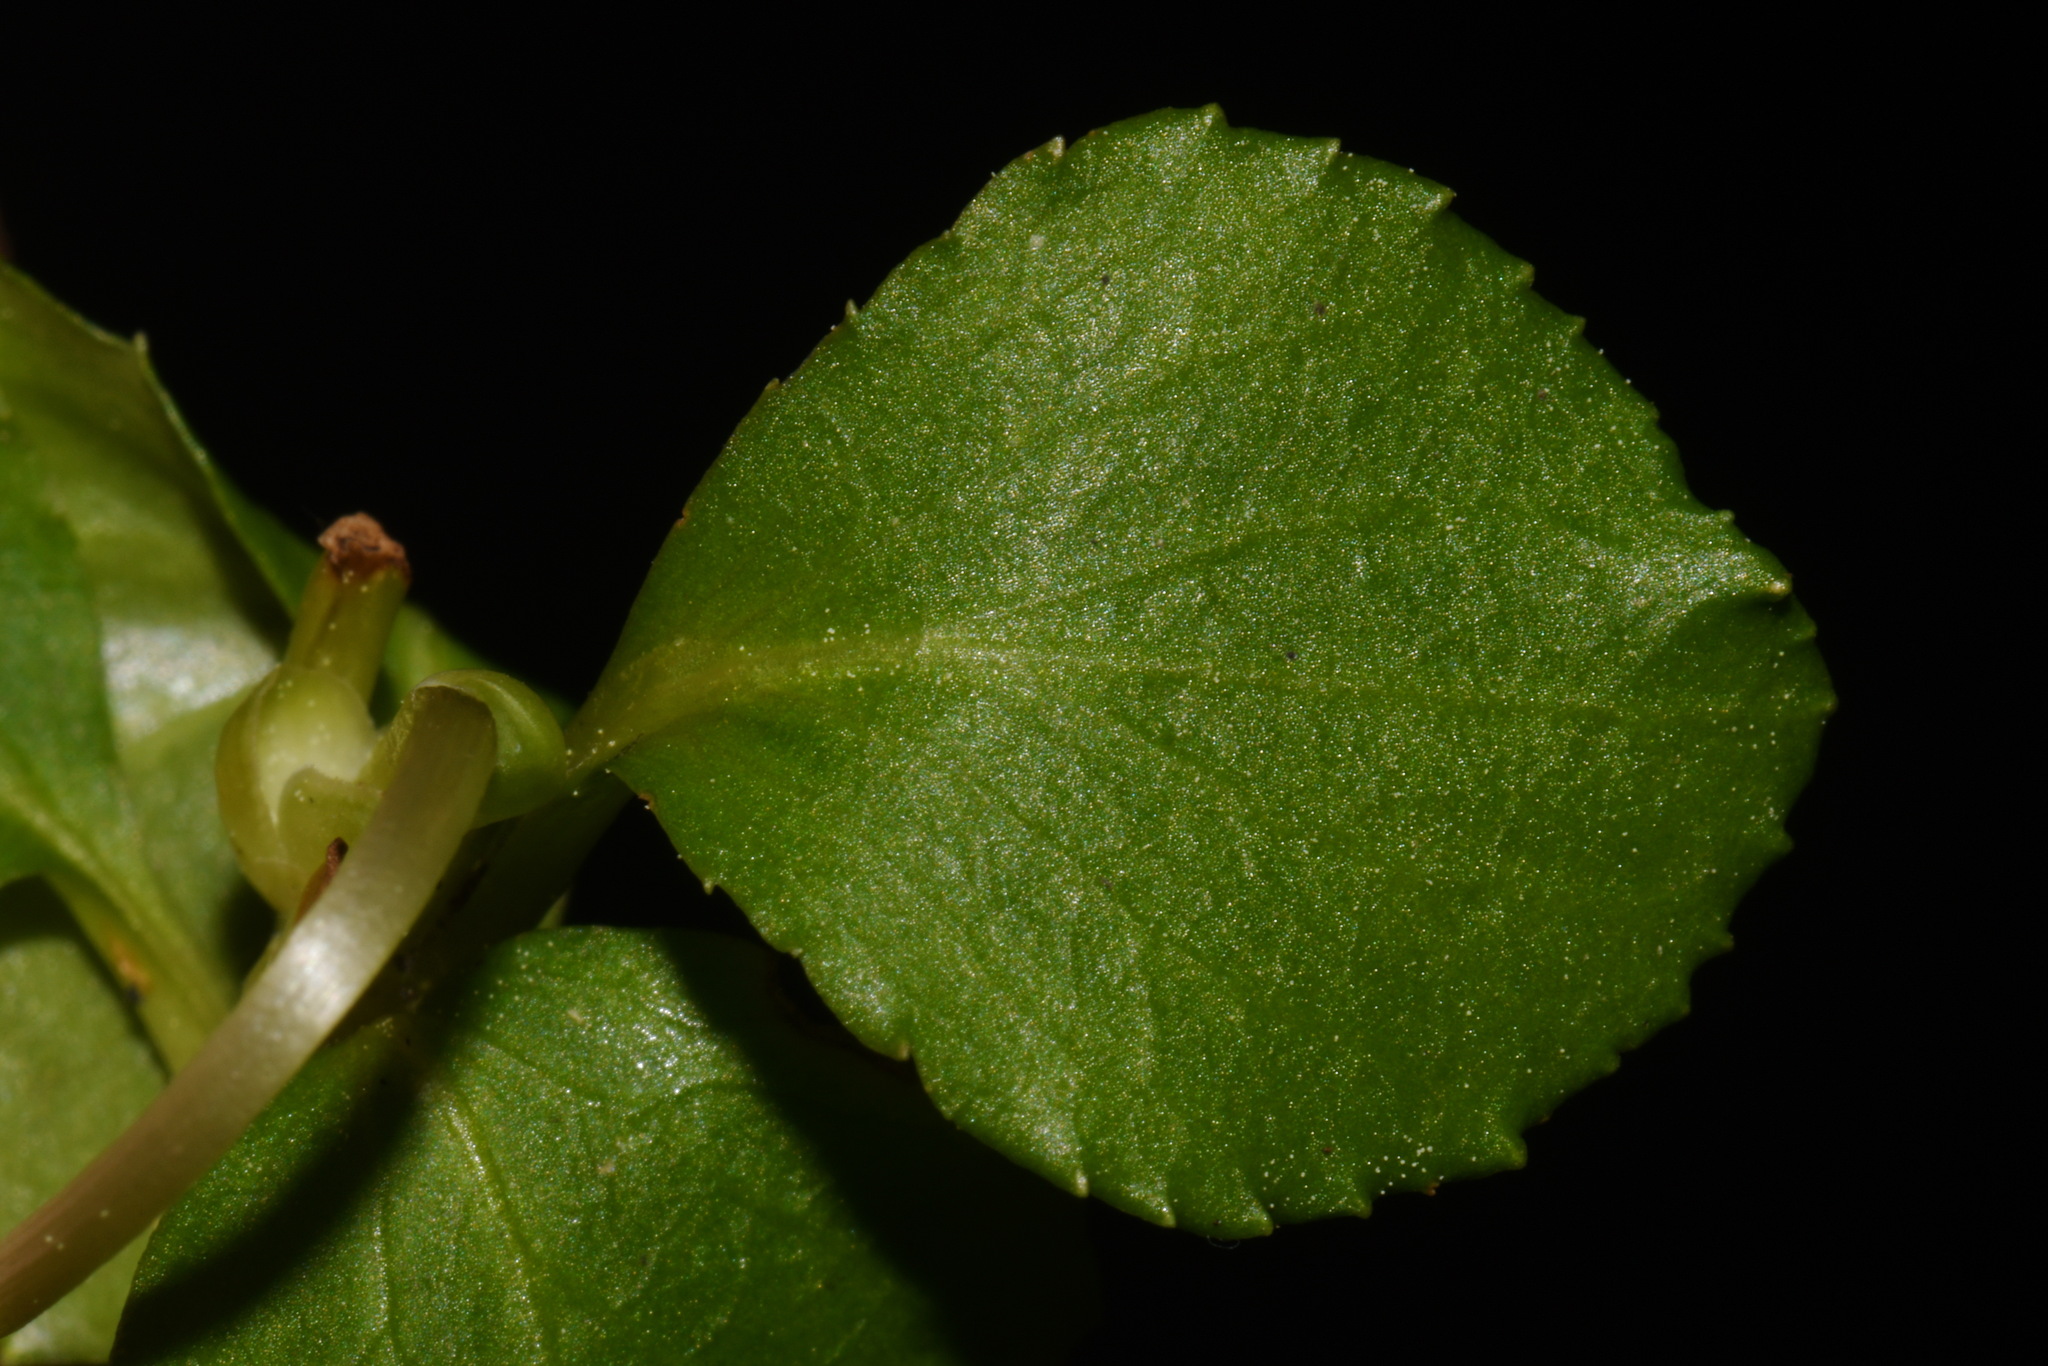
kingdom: Plantae
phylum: Tracheophyta
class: Magnoliopsida
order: Ericales
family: Ericaceae
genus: Moneses
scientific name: Moneses uniflora
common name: One-flowered wintergreen
